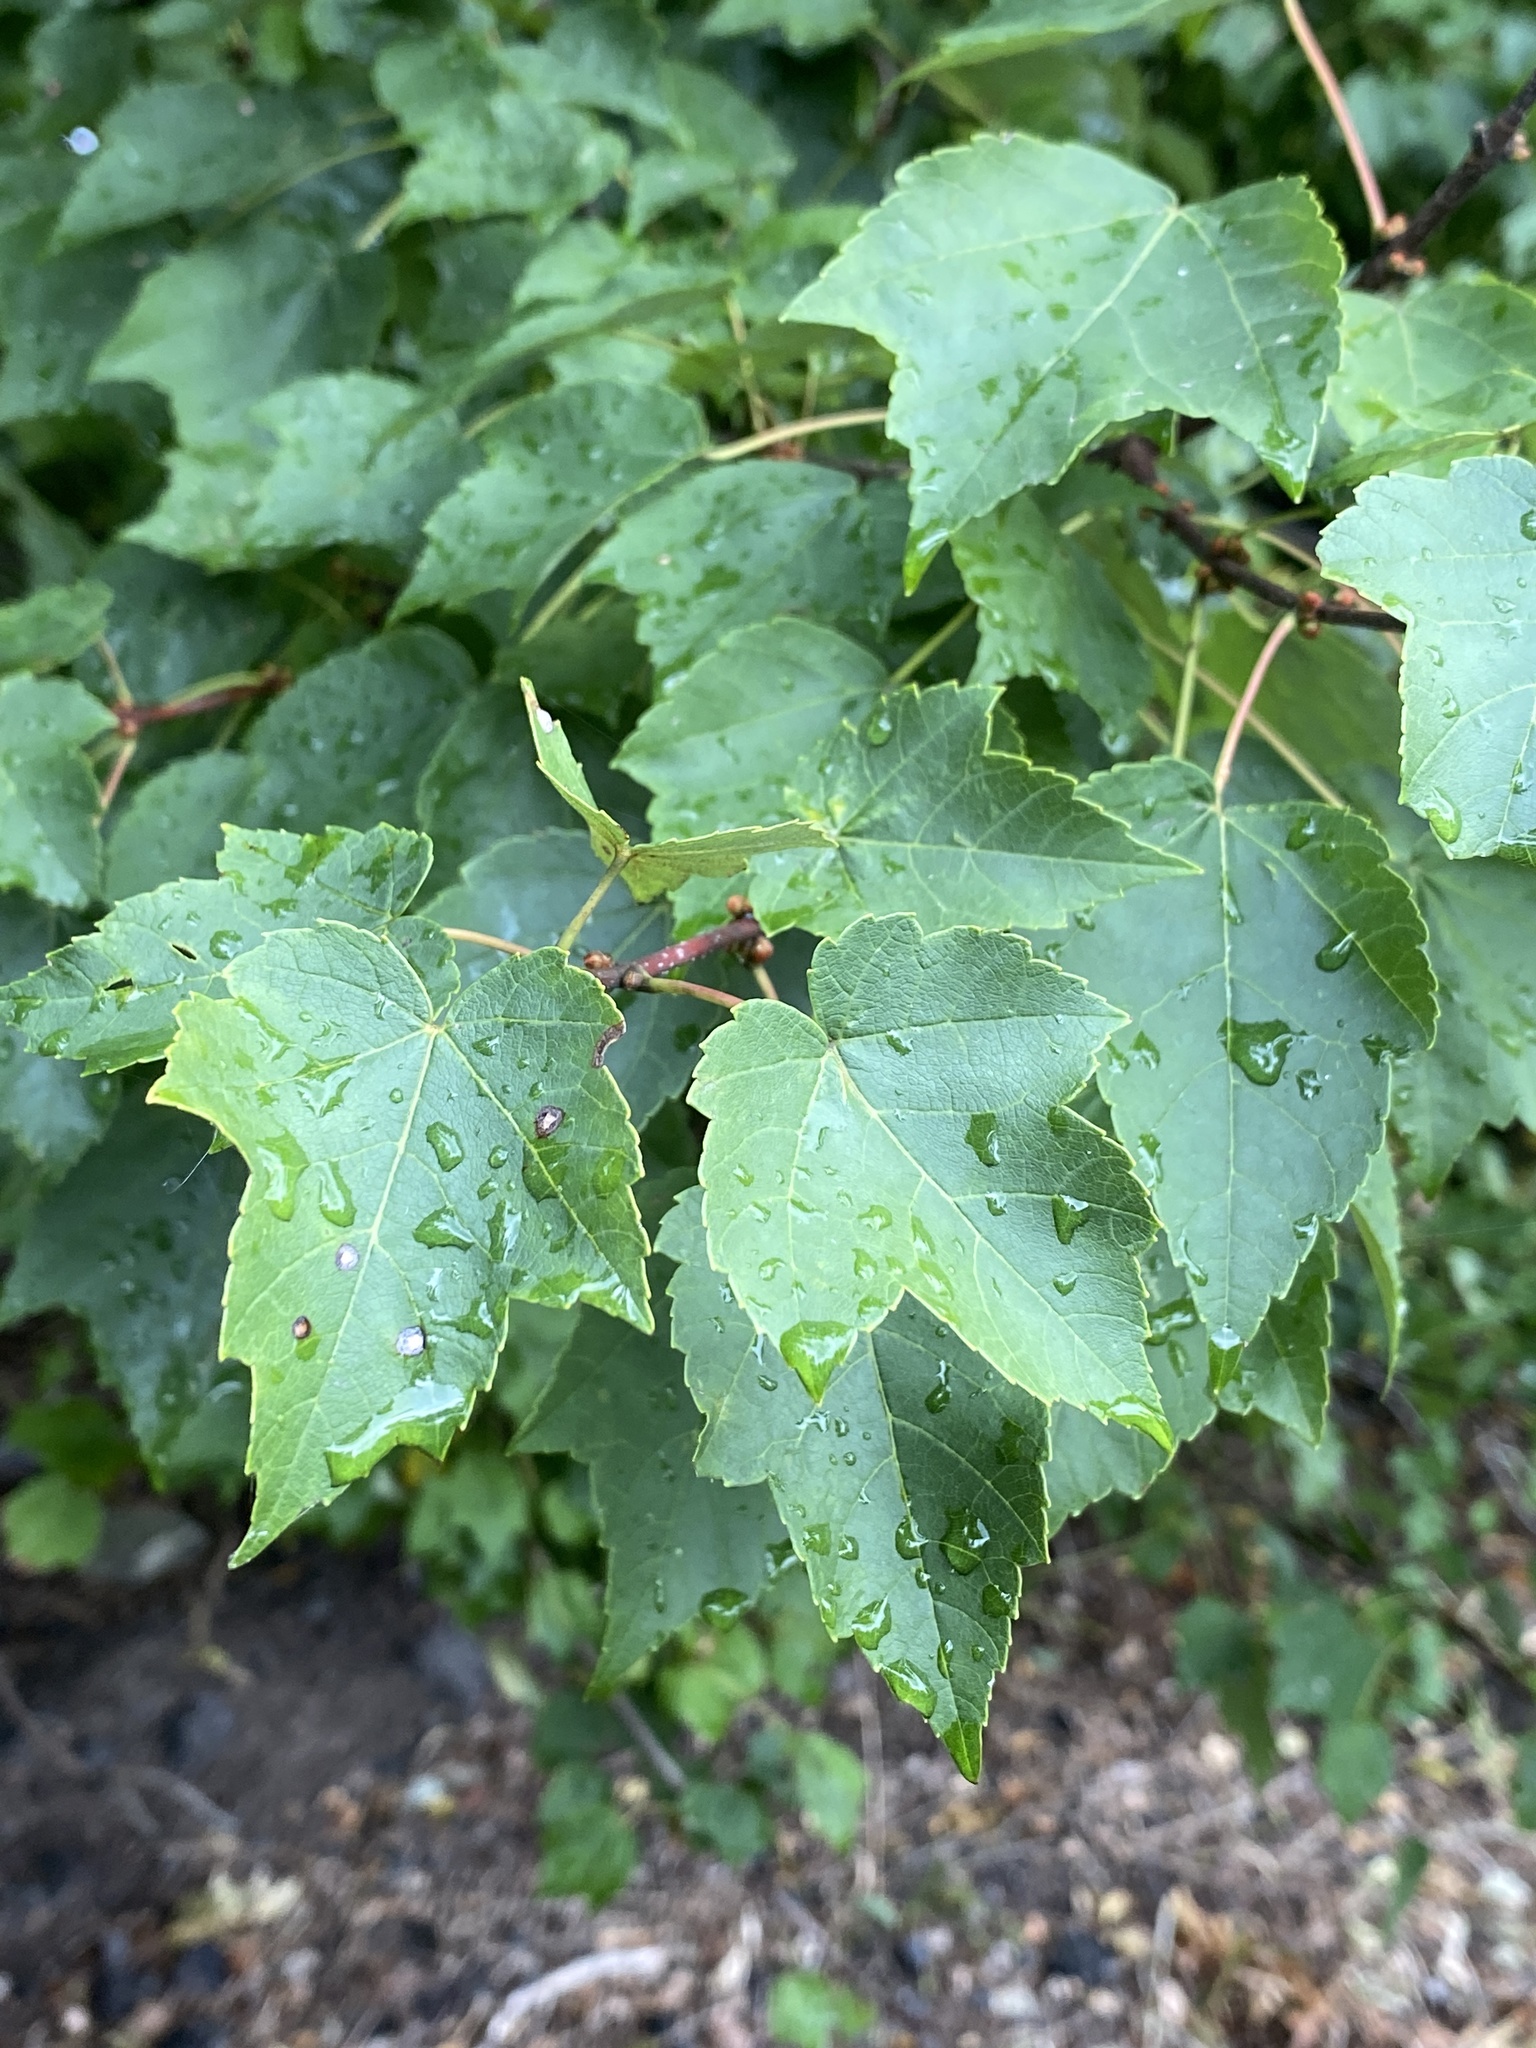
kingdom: Plantae
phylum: Tracheophyta
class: Magnoliopsida
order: Sapindales
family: Sapindaceae
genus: Acer
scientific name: Acer rubrum
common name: Red maple
